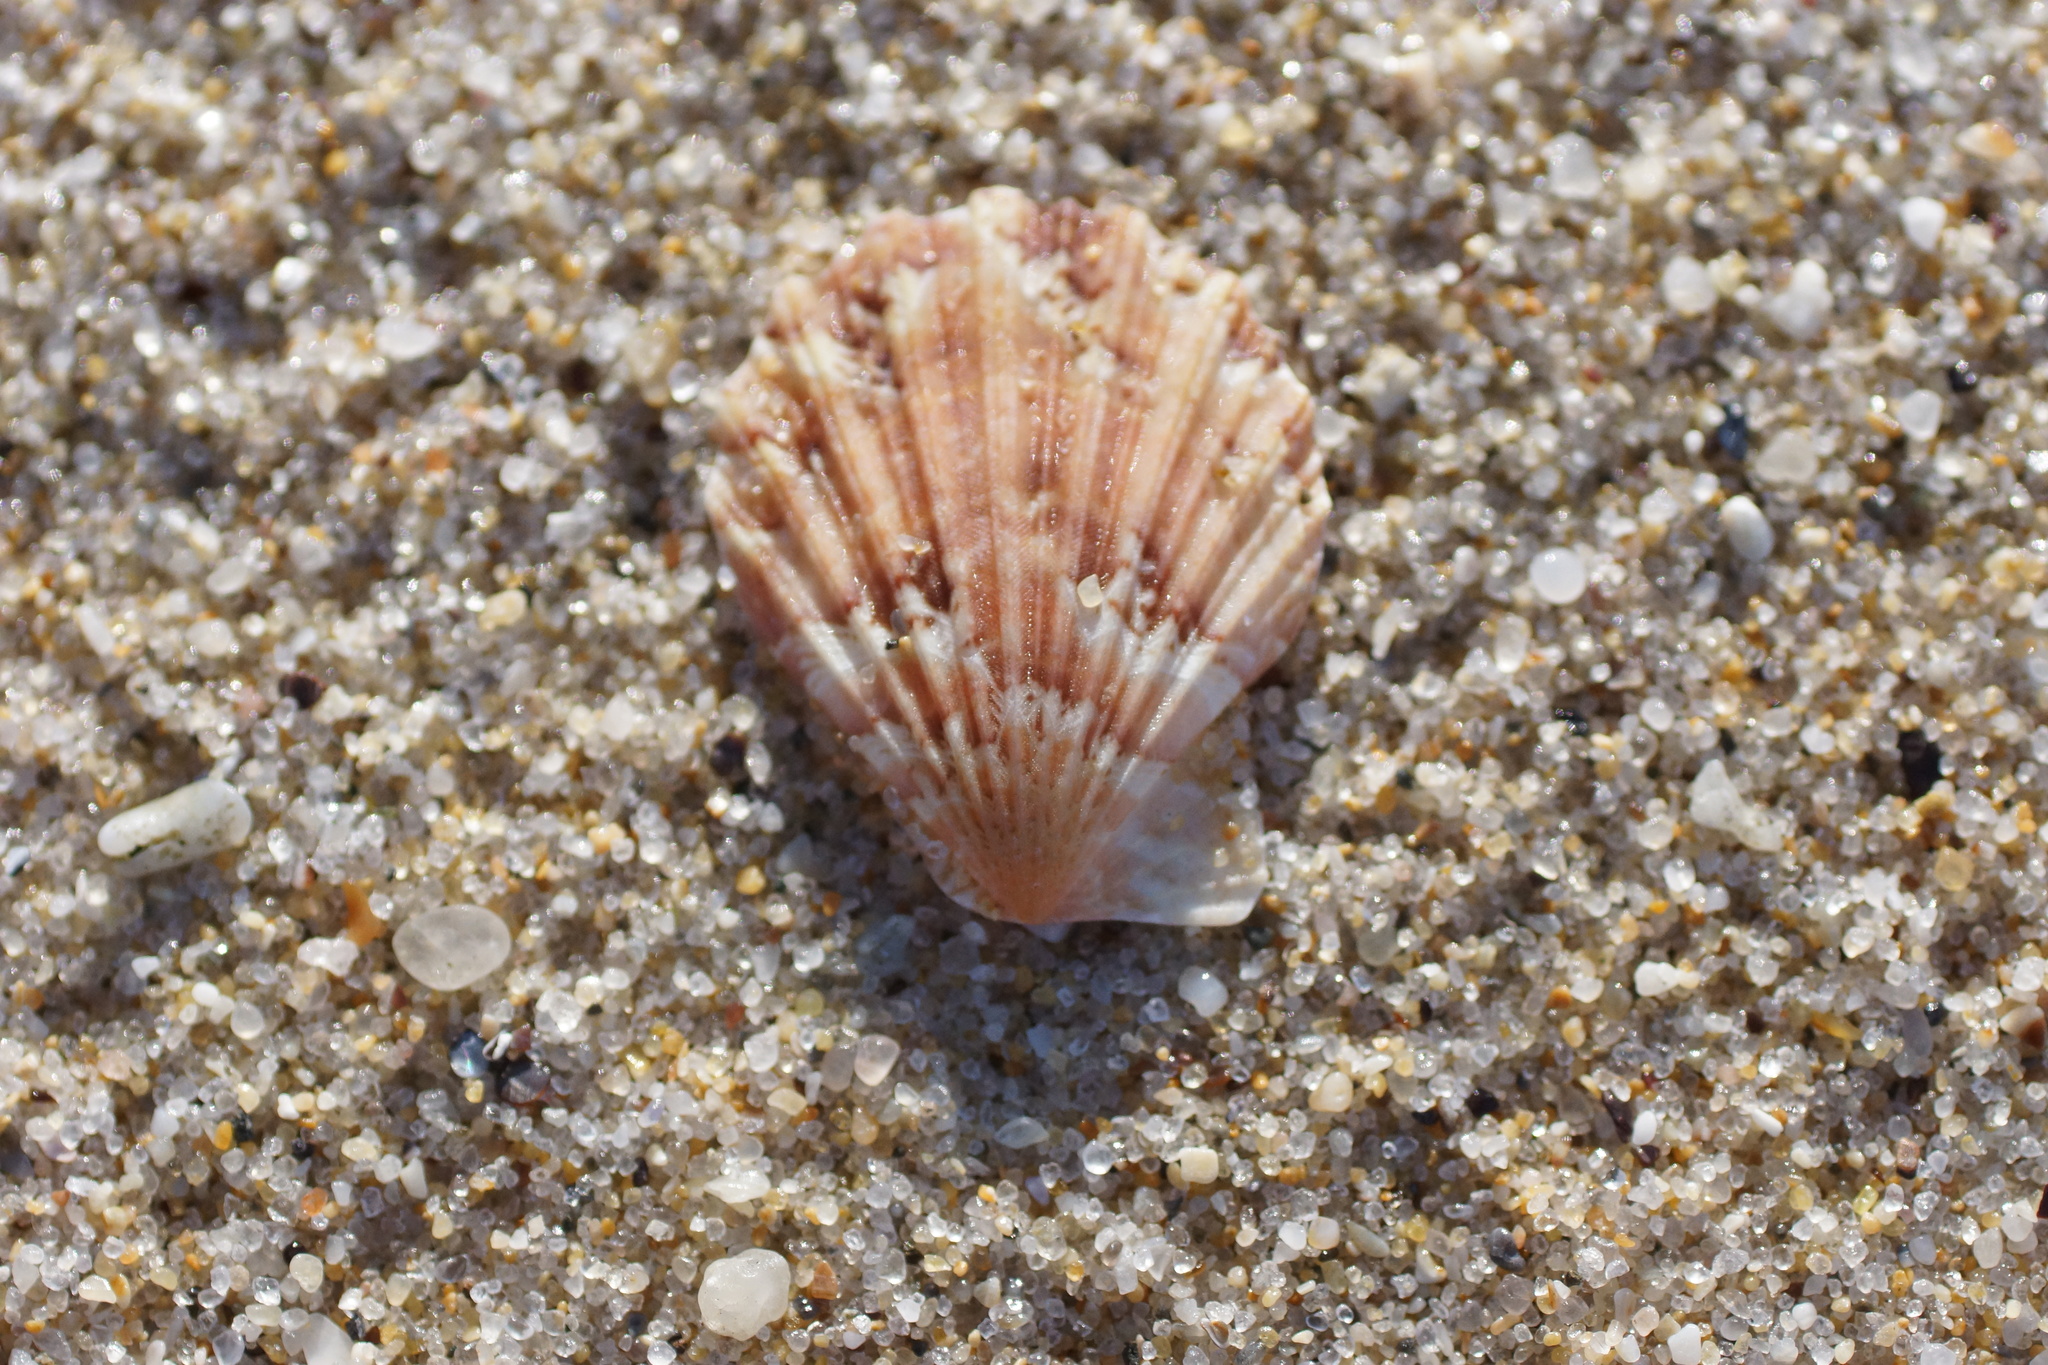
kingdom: Animalia
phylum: Mollusca
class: Bivalvia
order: Pectinida
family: Pectinidae
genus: Semipallium
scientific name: Semipallium aktinos
